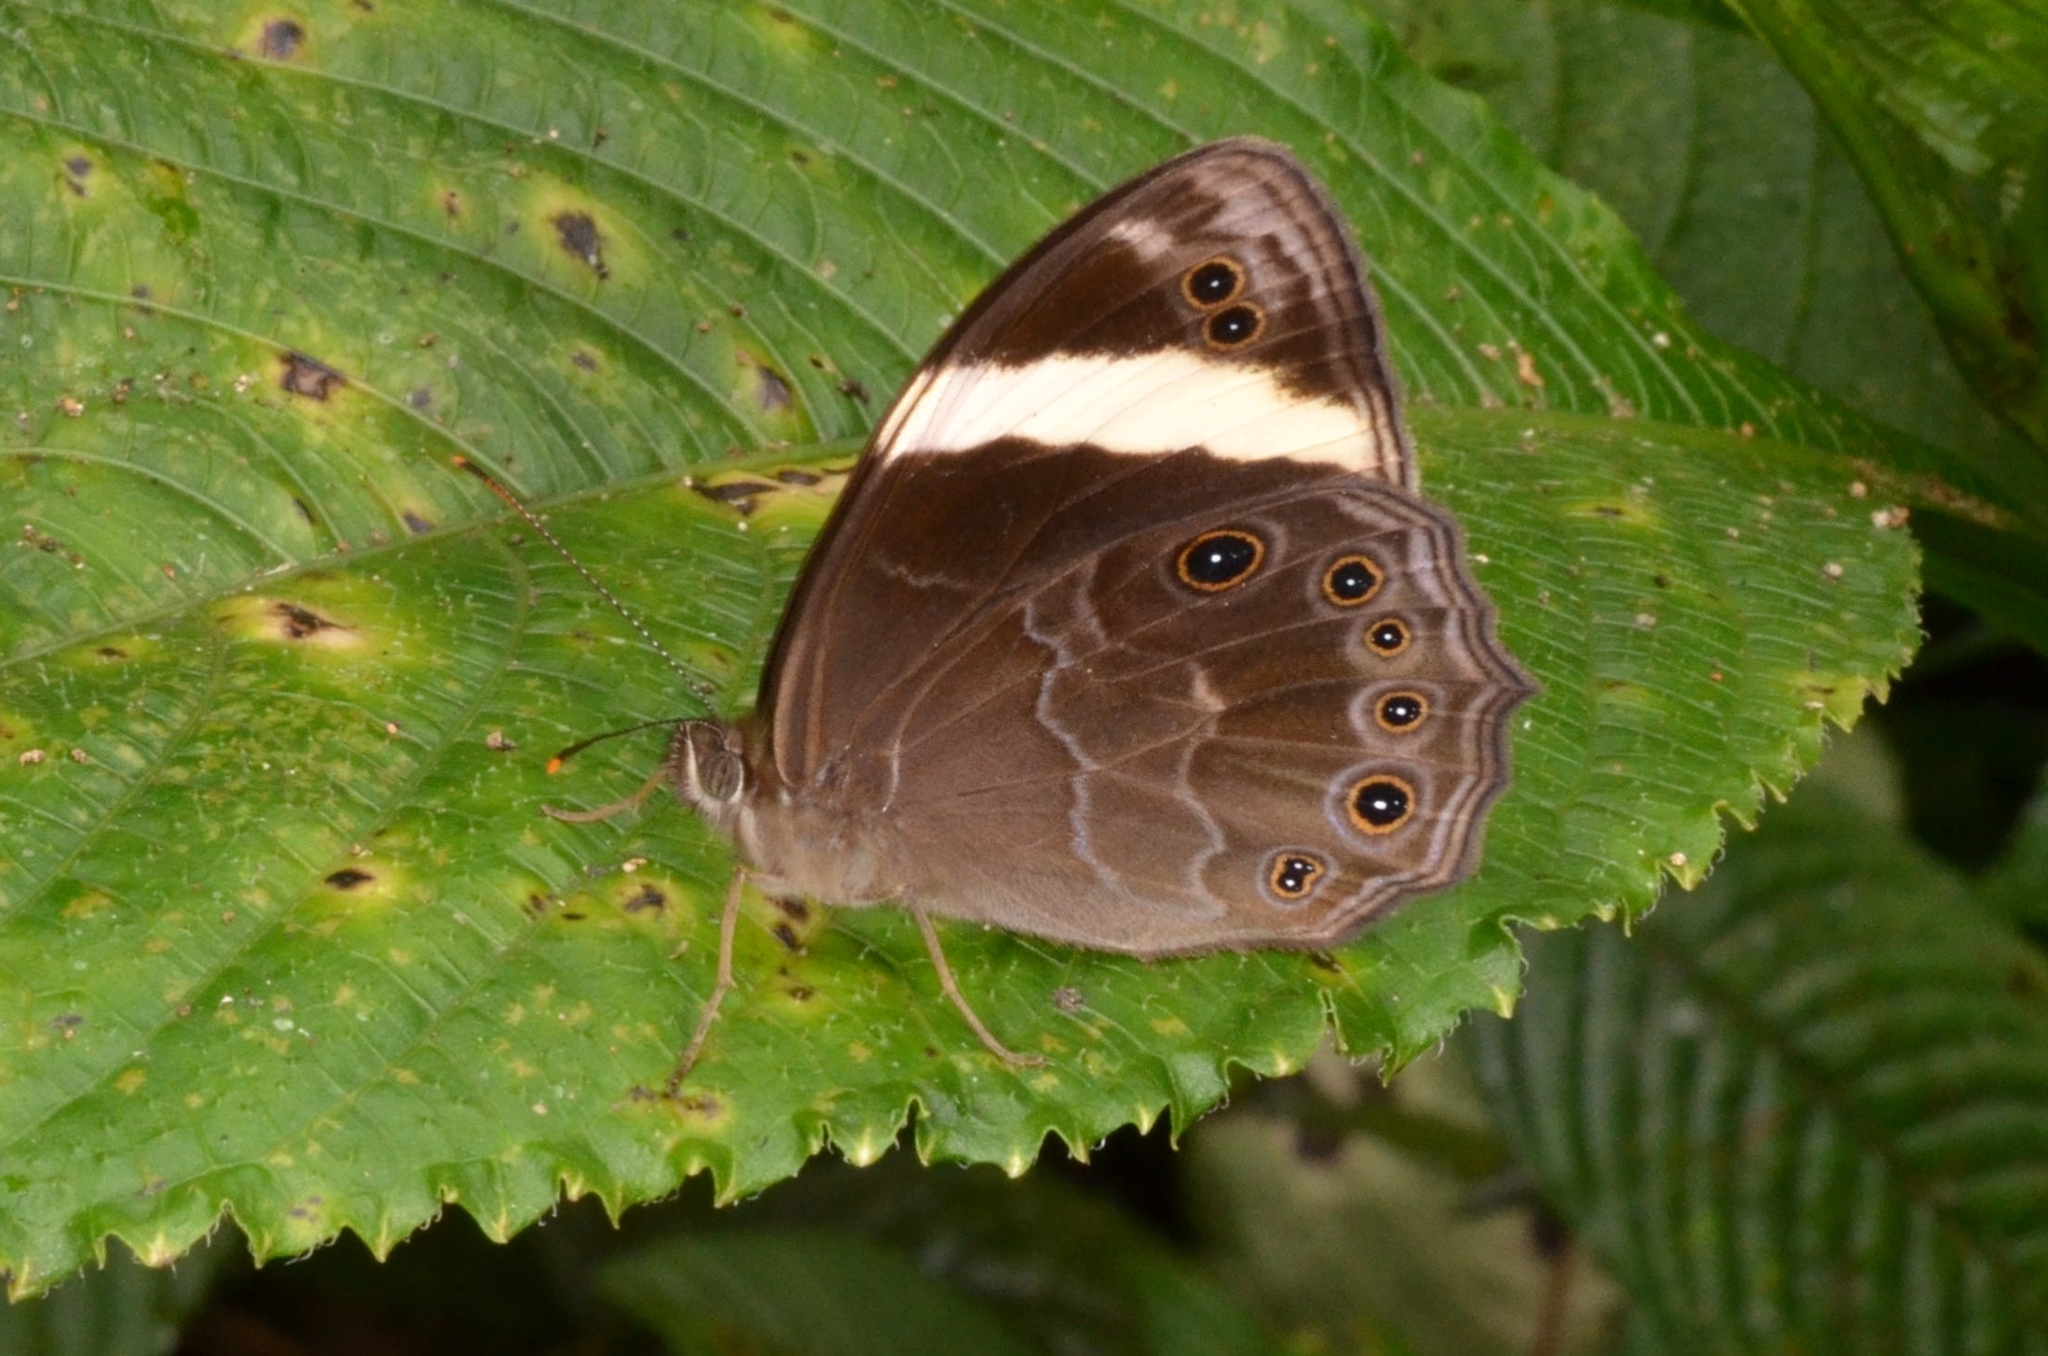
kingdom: Animalia
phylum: Arthropoda
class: Insecta
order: Lepidoptera
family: Nymphalidae
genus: Lethe
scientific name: Lethe verma
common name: Straight-banded treebrown
